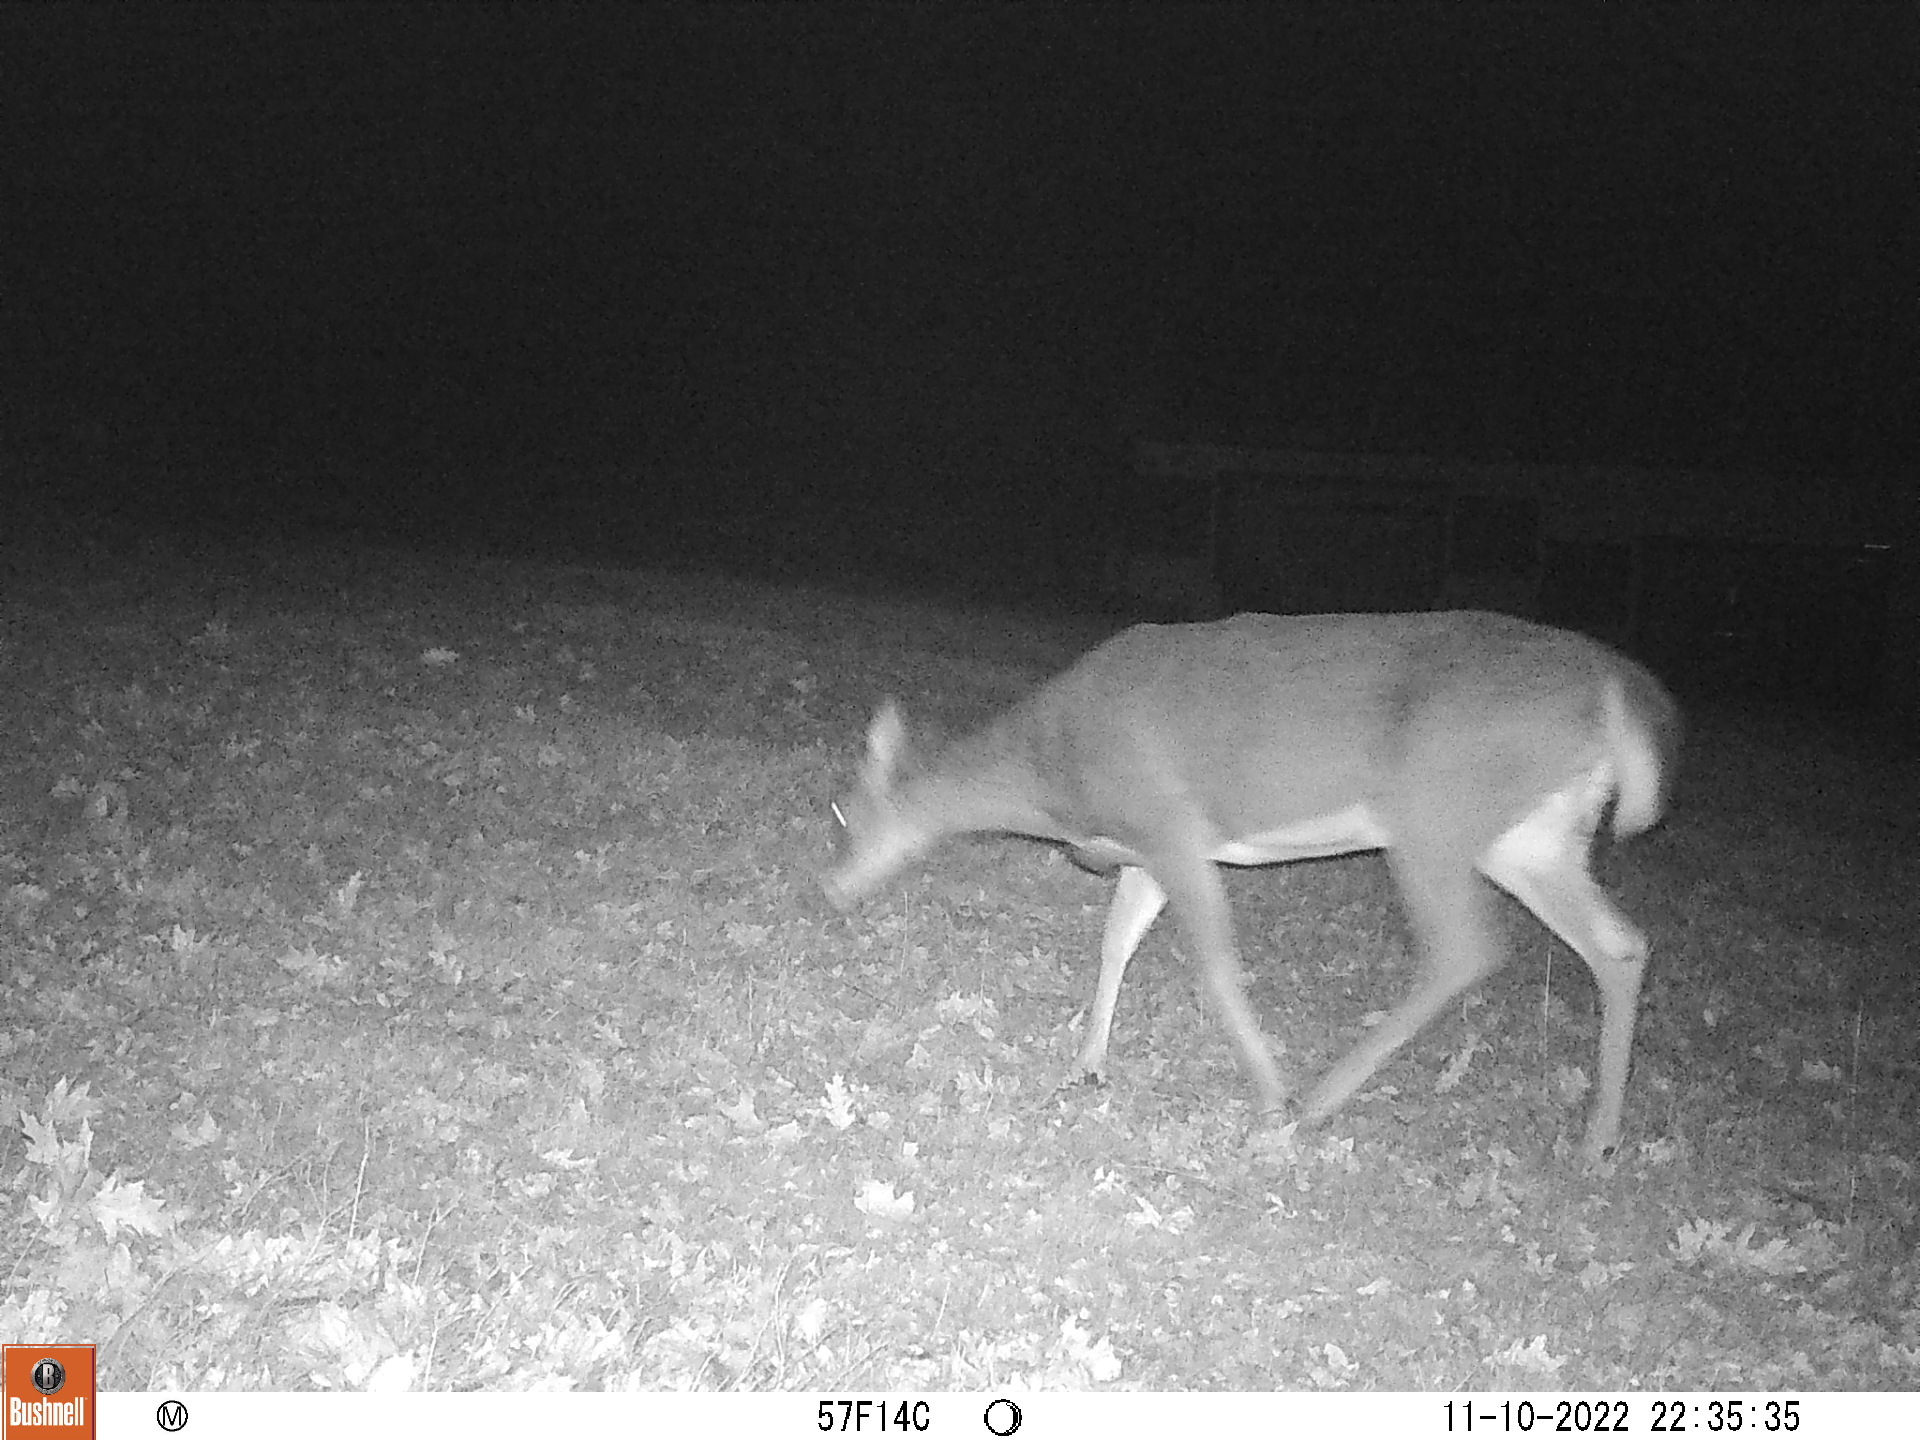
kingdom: Animalia
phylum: Chordata
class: Mammalia
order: Artiodactyla
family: Cervidae
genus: Odocoileus
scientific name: Odocoileus virginianus
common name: White-tailed deer
